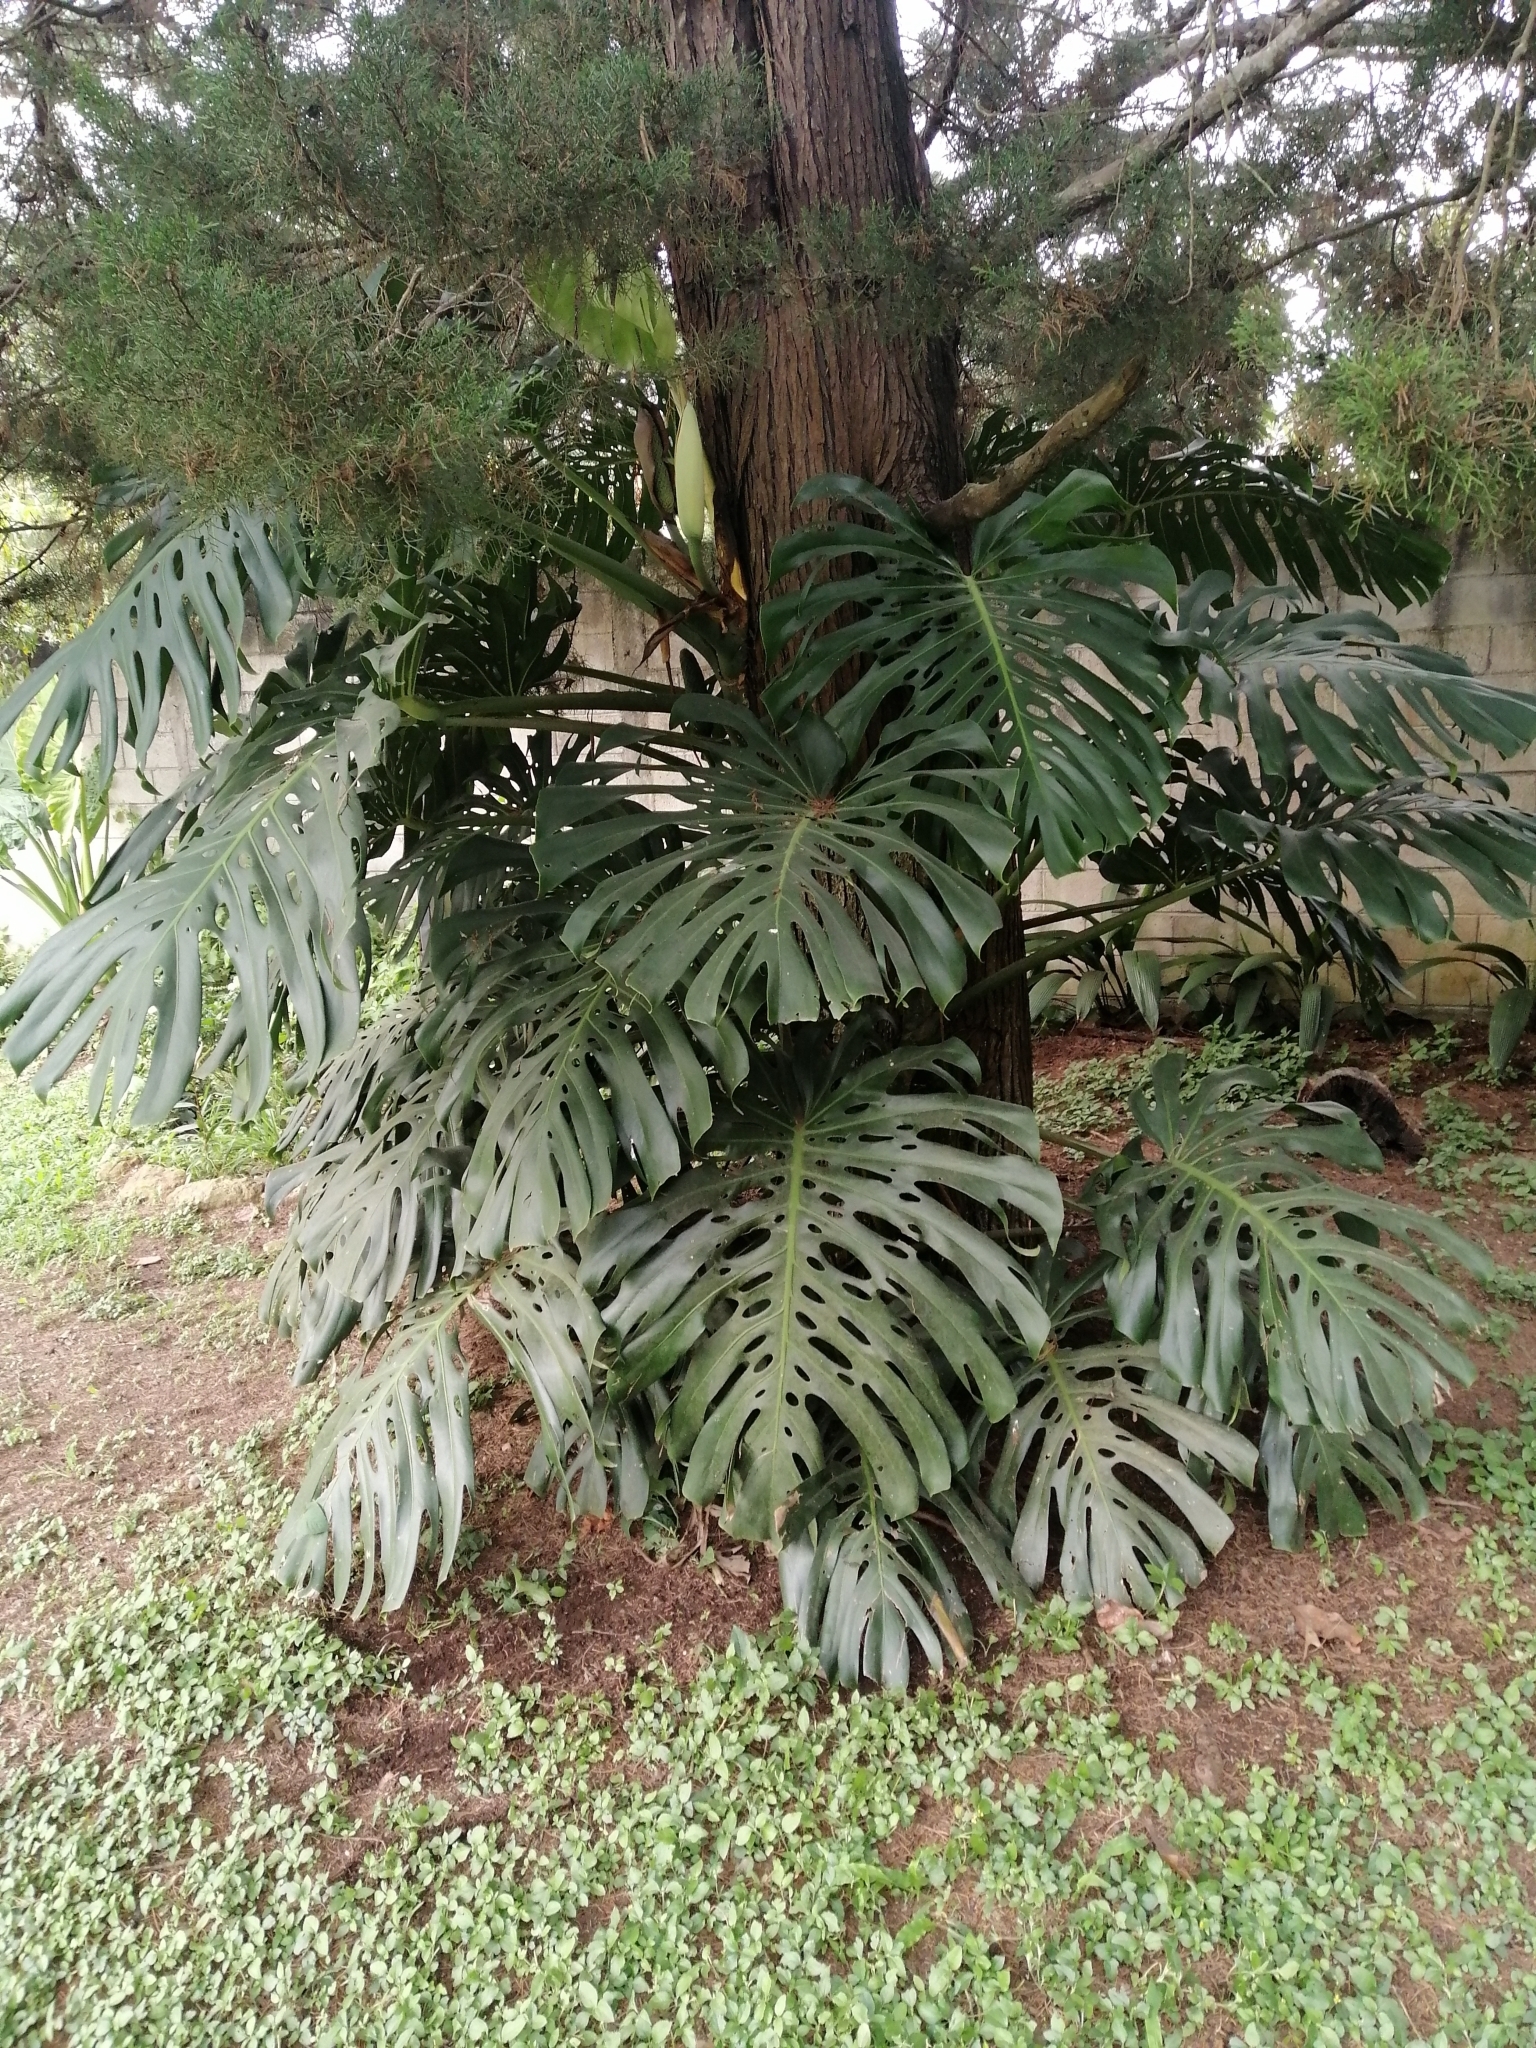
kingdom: Plantae
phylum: Tracheophyta
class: Liliopsida
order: Alismatales
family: Araceae
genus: Monstera
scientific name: Monstera deliciosa
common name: Cut-leaf-philodendron
